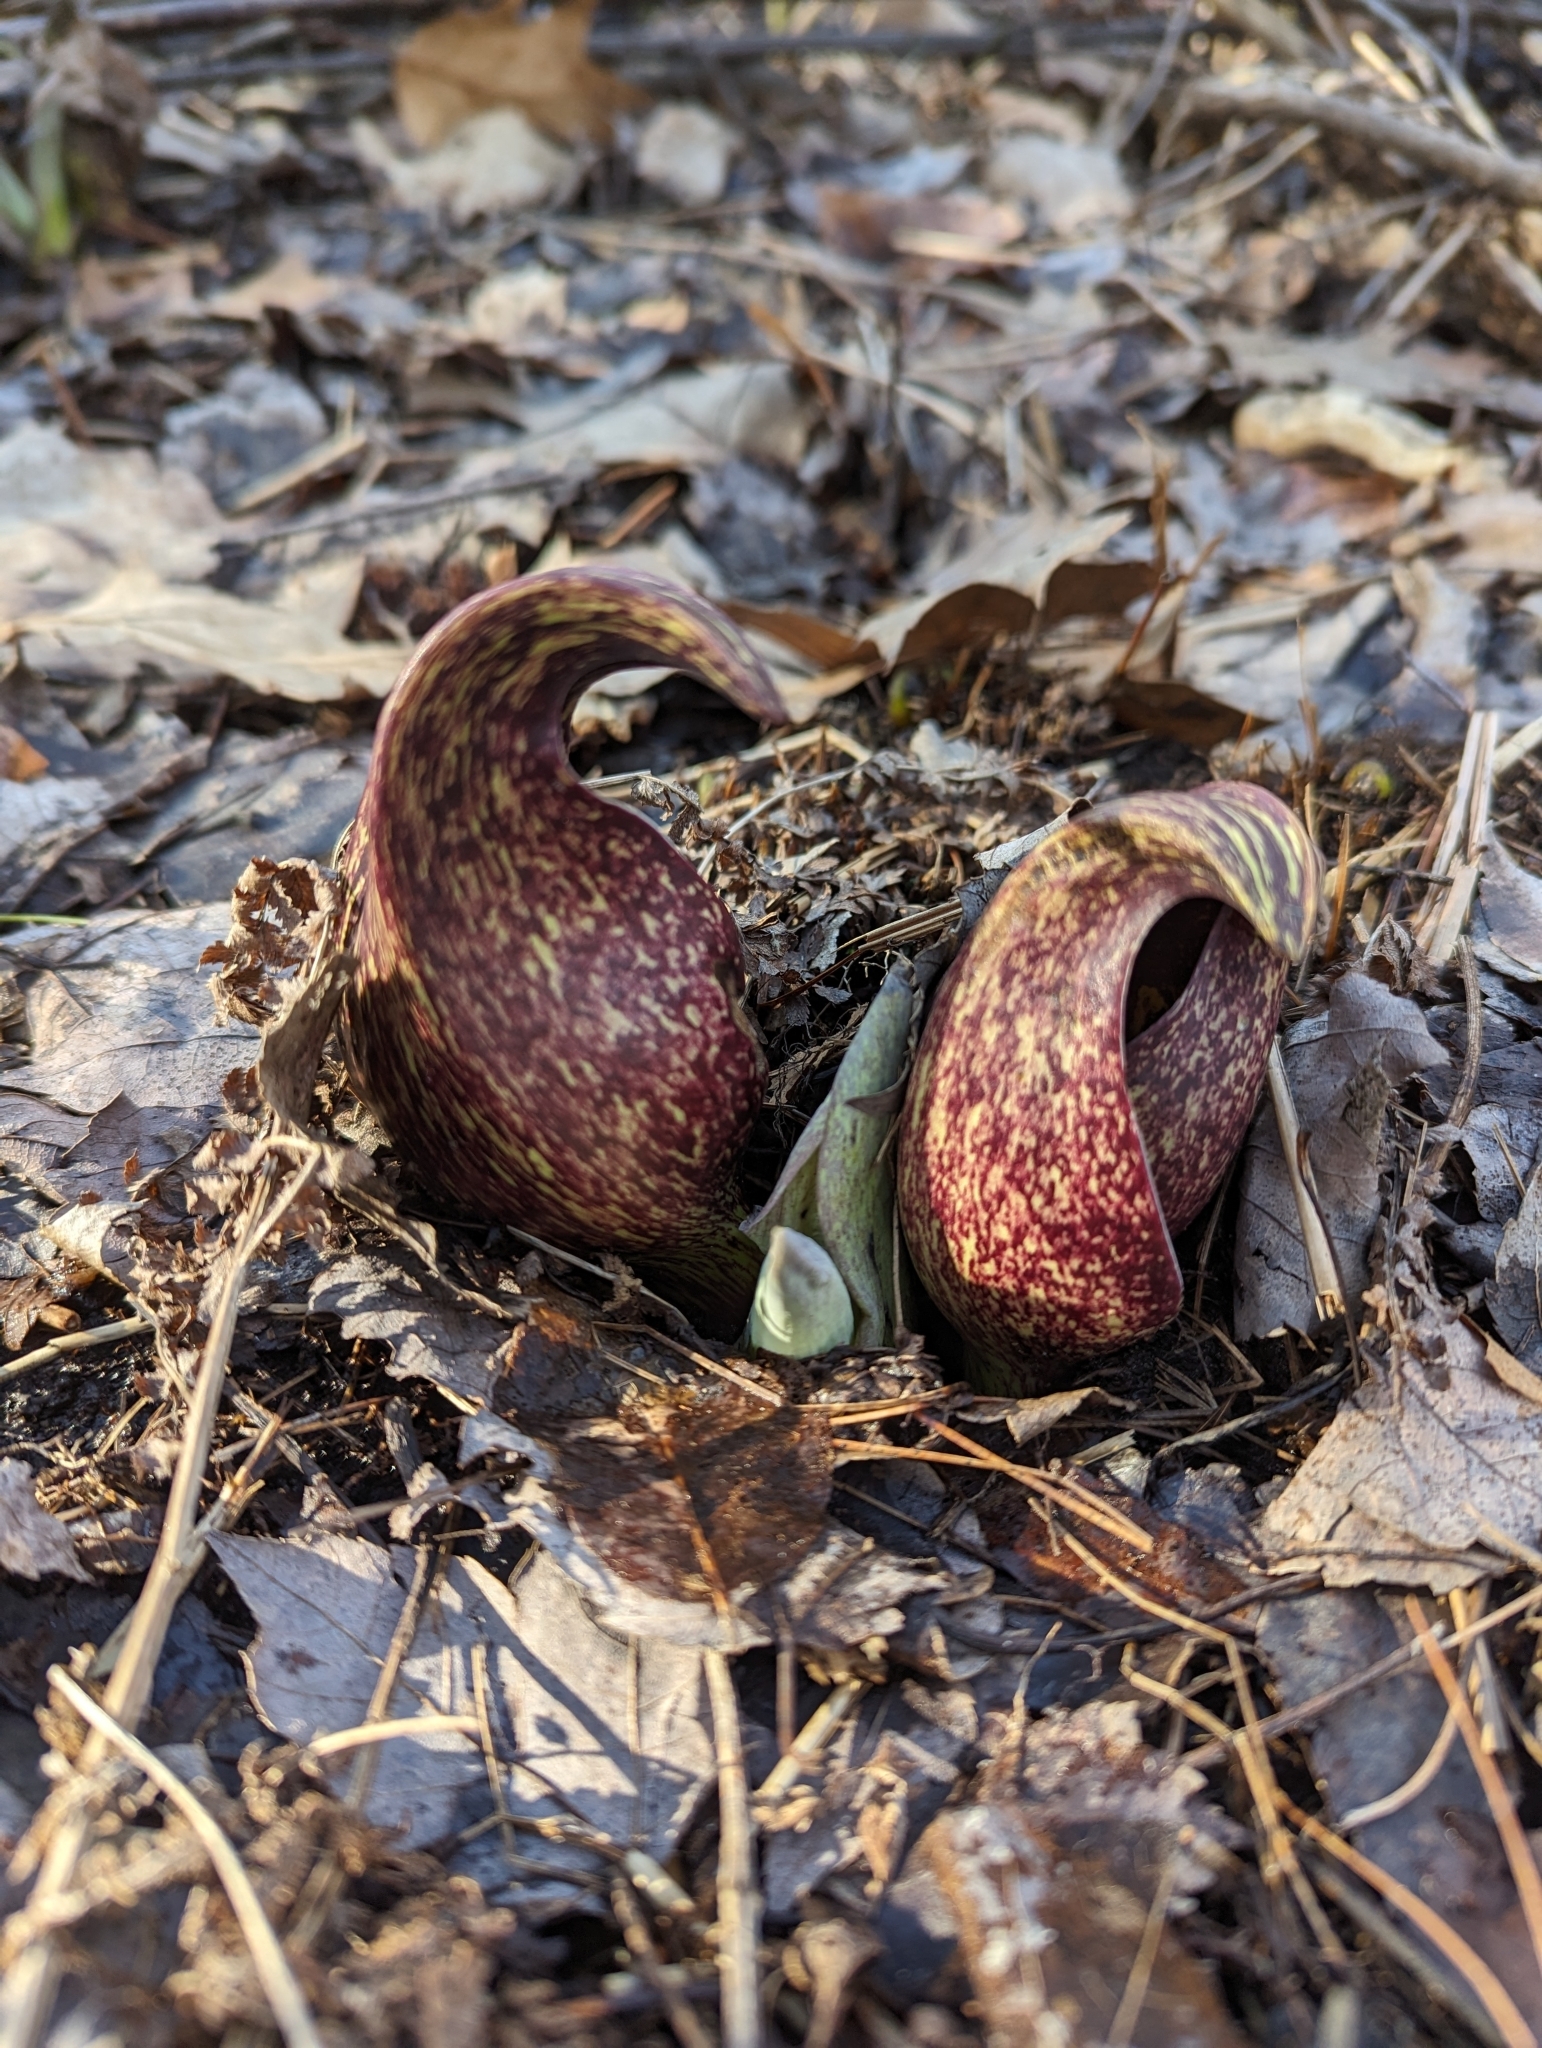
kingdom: Plantae
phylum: Tracheophyta
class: Liliopsida
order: Alismatales
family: Araceae
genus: Symplocarpus
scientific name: Symplocarpus foetidus
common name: Eastern skunk cabbage
